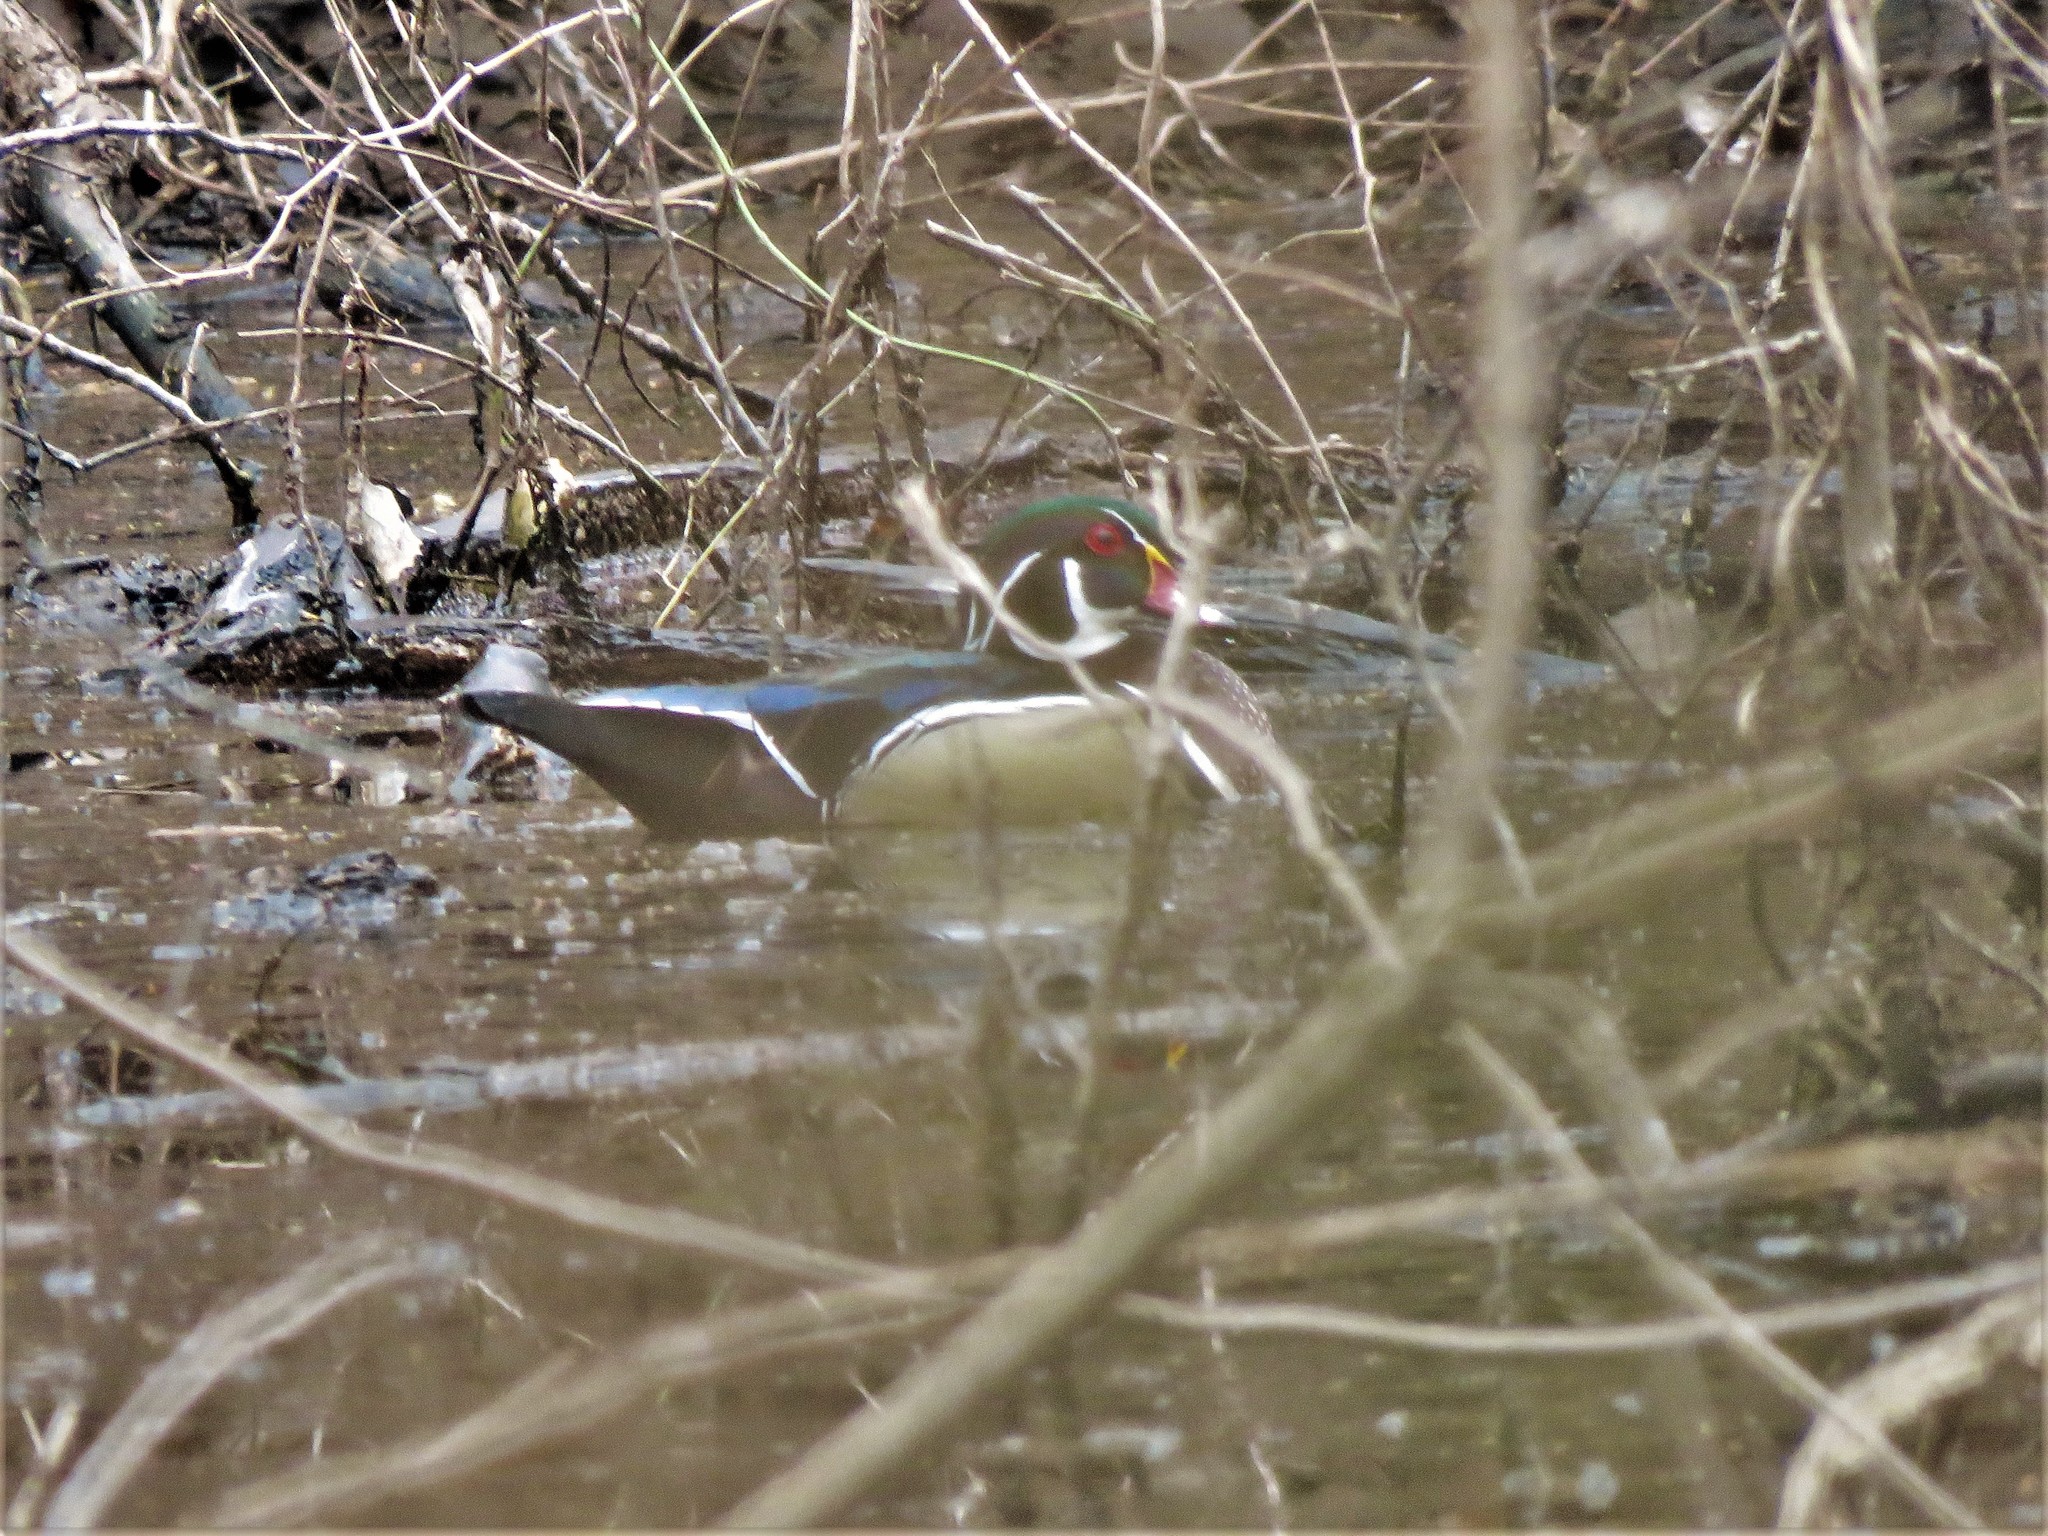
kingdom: Animalia
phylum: Chordata
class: Aves
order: Anseriformes
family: Anatidae
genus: Aix
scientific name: Aix sponsa
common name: Wood duck
